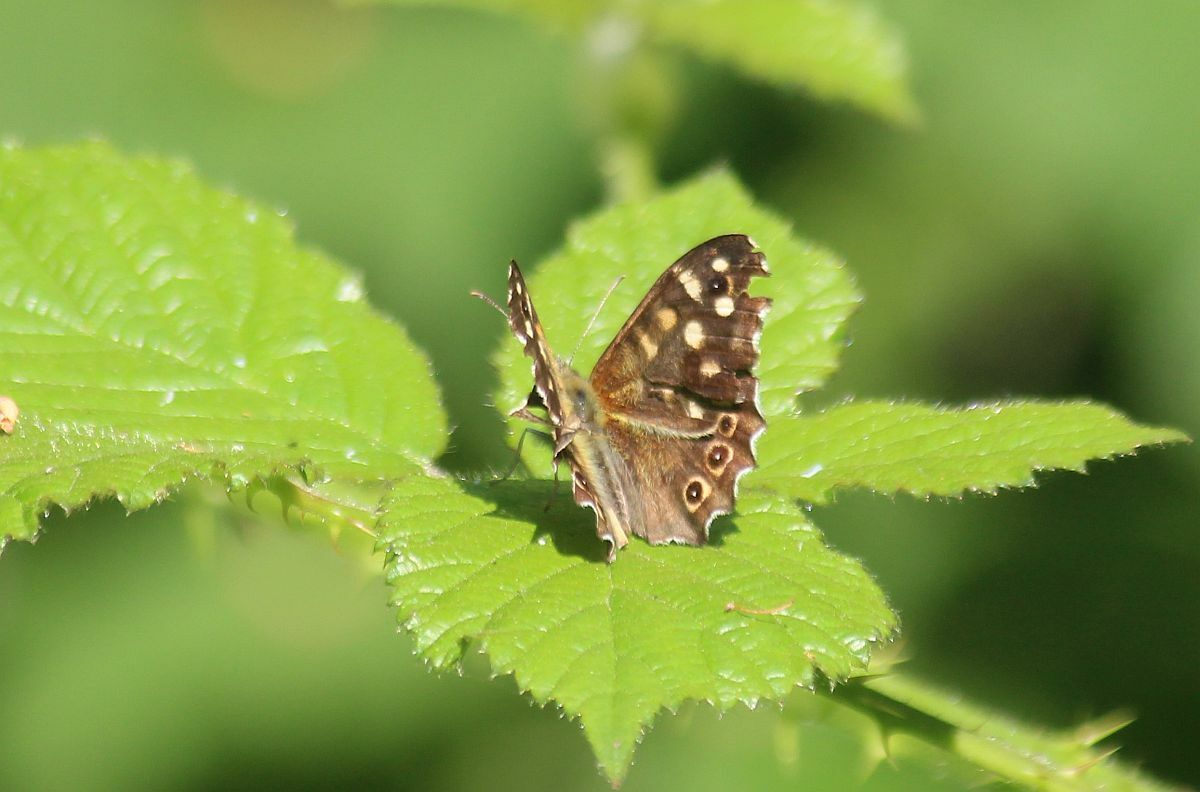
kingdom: Animalia
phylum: Arthropoda
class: Insecta
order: Lepidoptera
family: Nymphalidae
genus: Pararge
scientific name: Pararge aegeria
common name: Speckled wood
